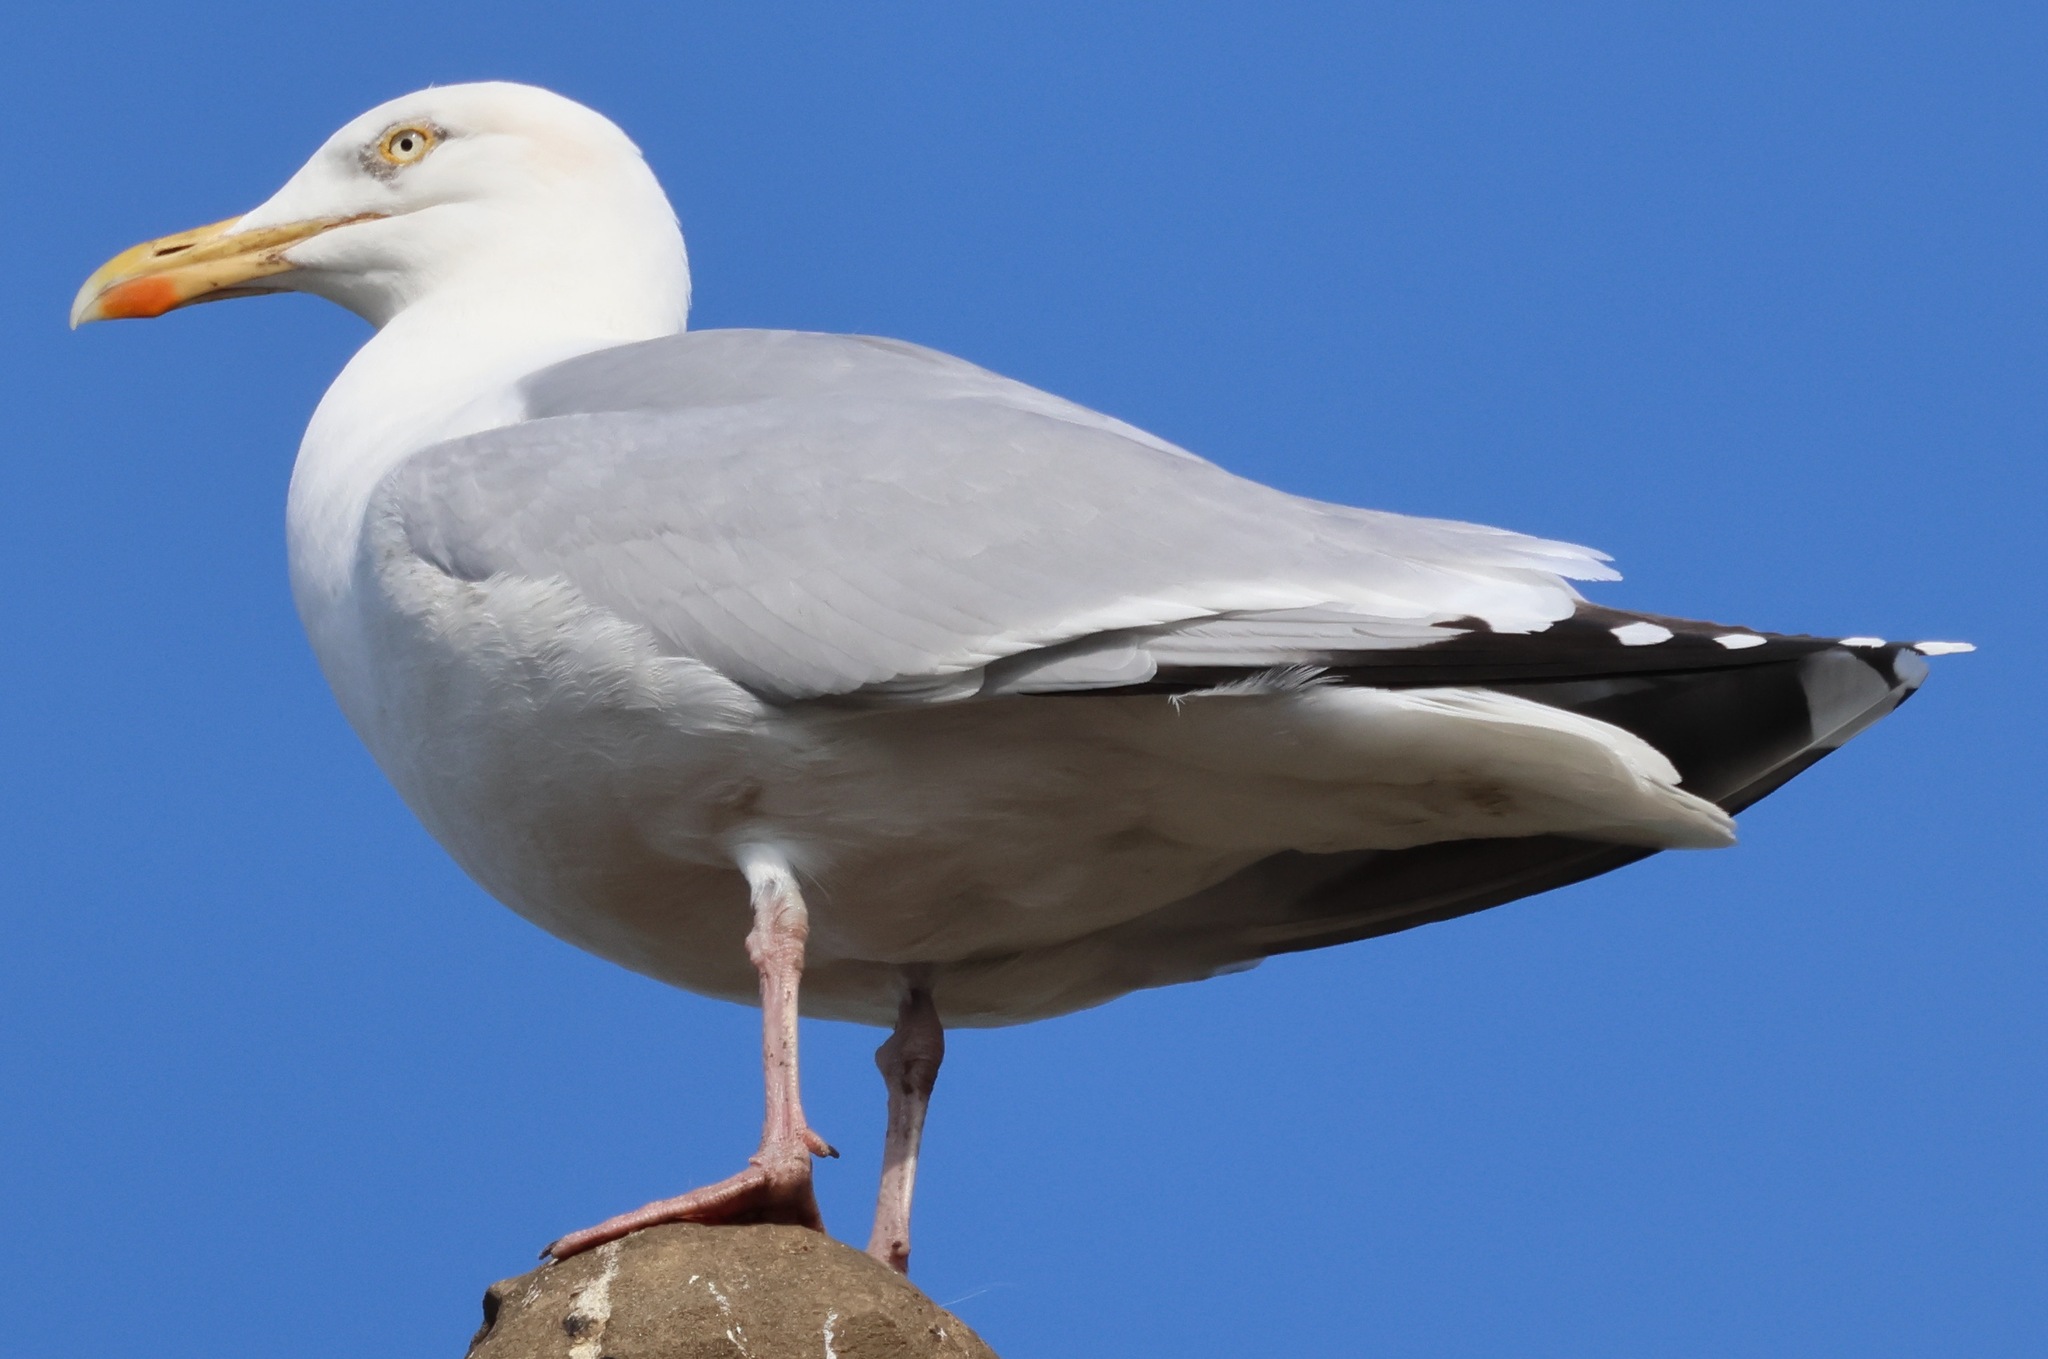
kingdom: Animalia
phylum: Chordata
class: Aves
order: Charadriiformes
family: Laridae
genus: Larus
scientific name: Larus argentatus
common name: Herring gull
